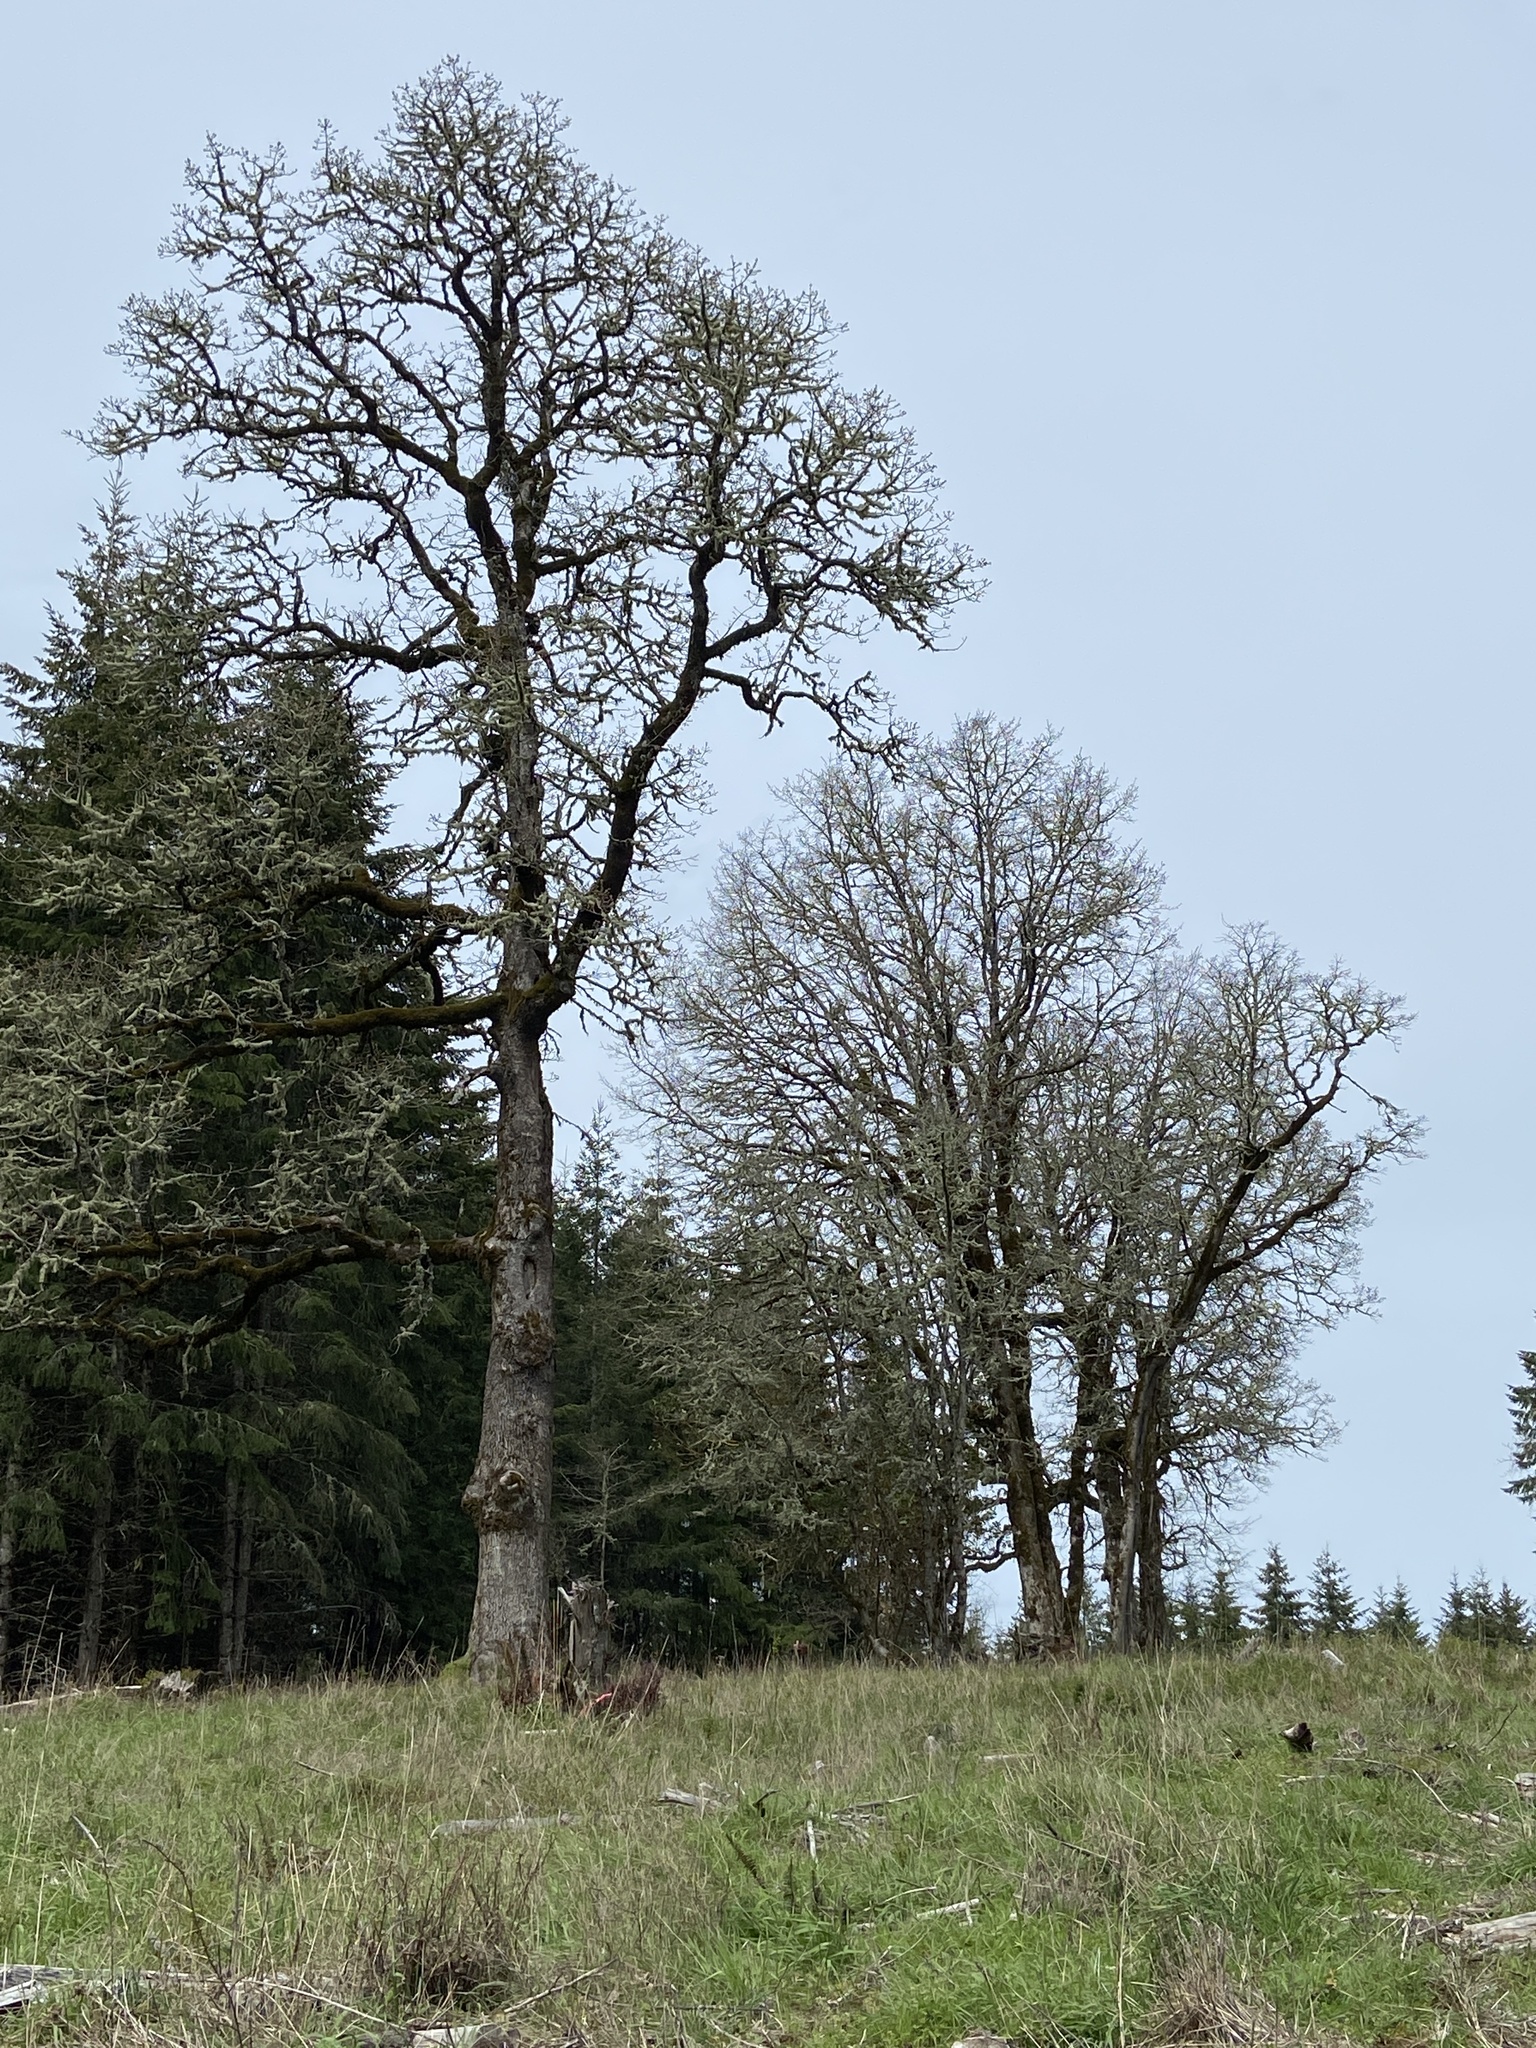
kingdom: Plantae
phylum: Tracheophyta
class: Magnoliopsida
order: Fagales
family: Fagaceae
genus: Quercus
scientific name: Quercus garryana
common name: Garry oak
